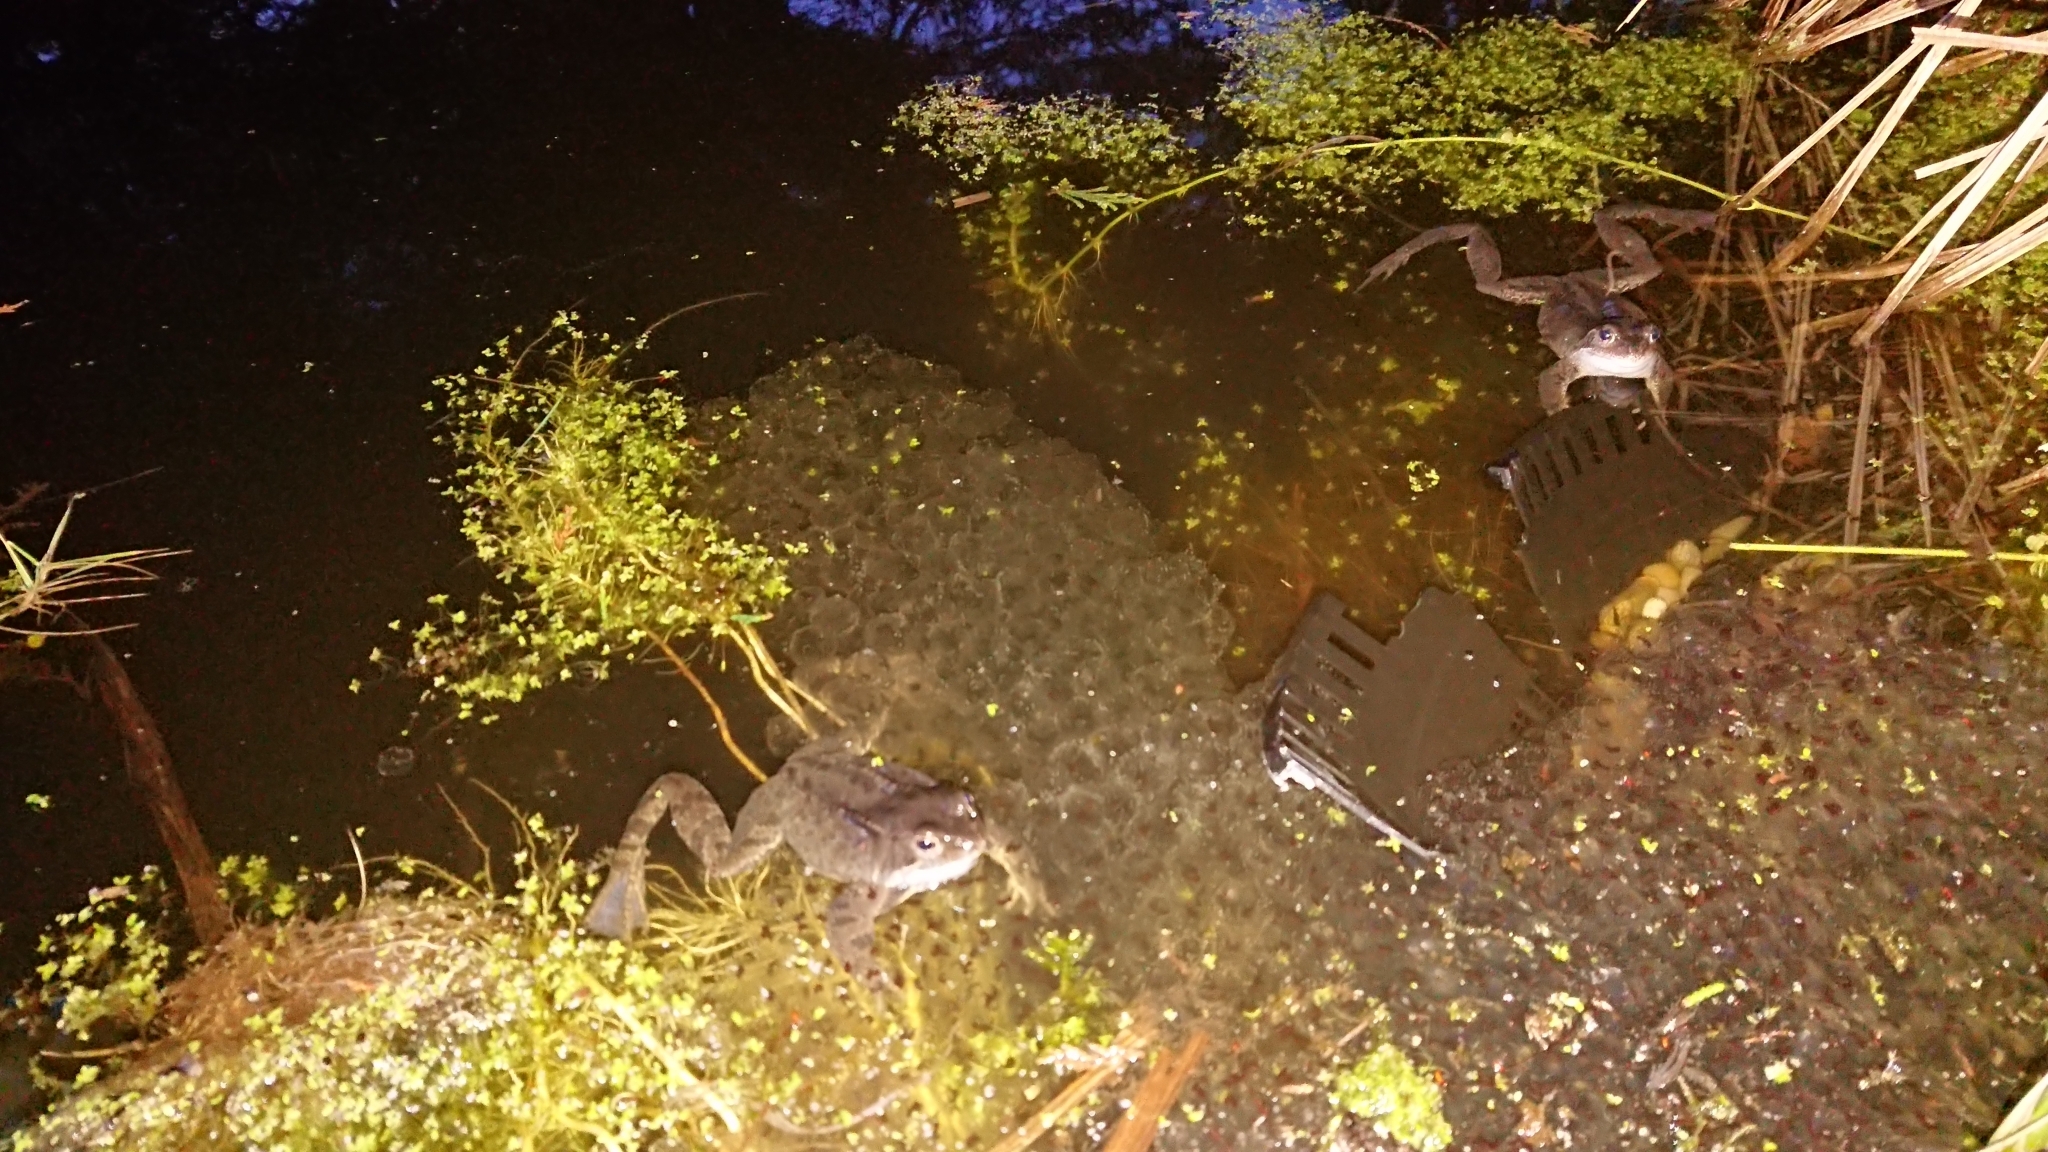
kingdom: Animalia
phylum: Chordata
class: Amphibia
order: Anura
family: Ranidae
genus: Rana
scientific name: Rana temporaria
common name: Common frog
